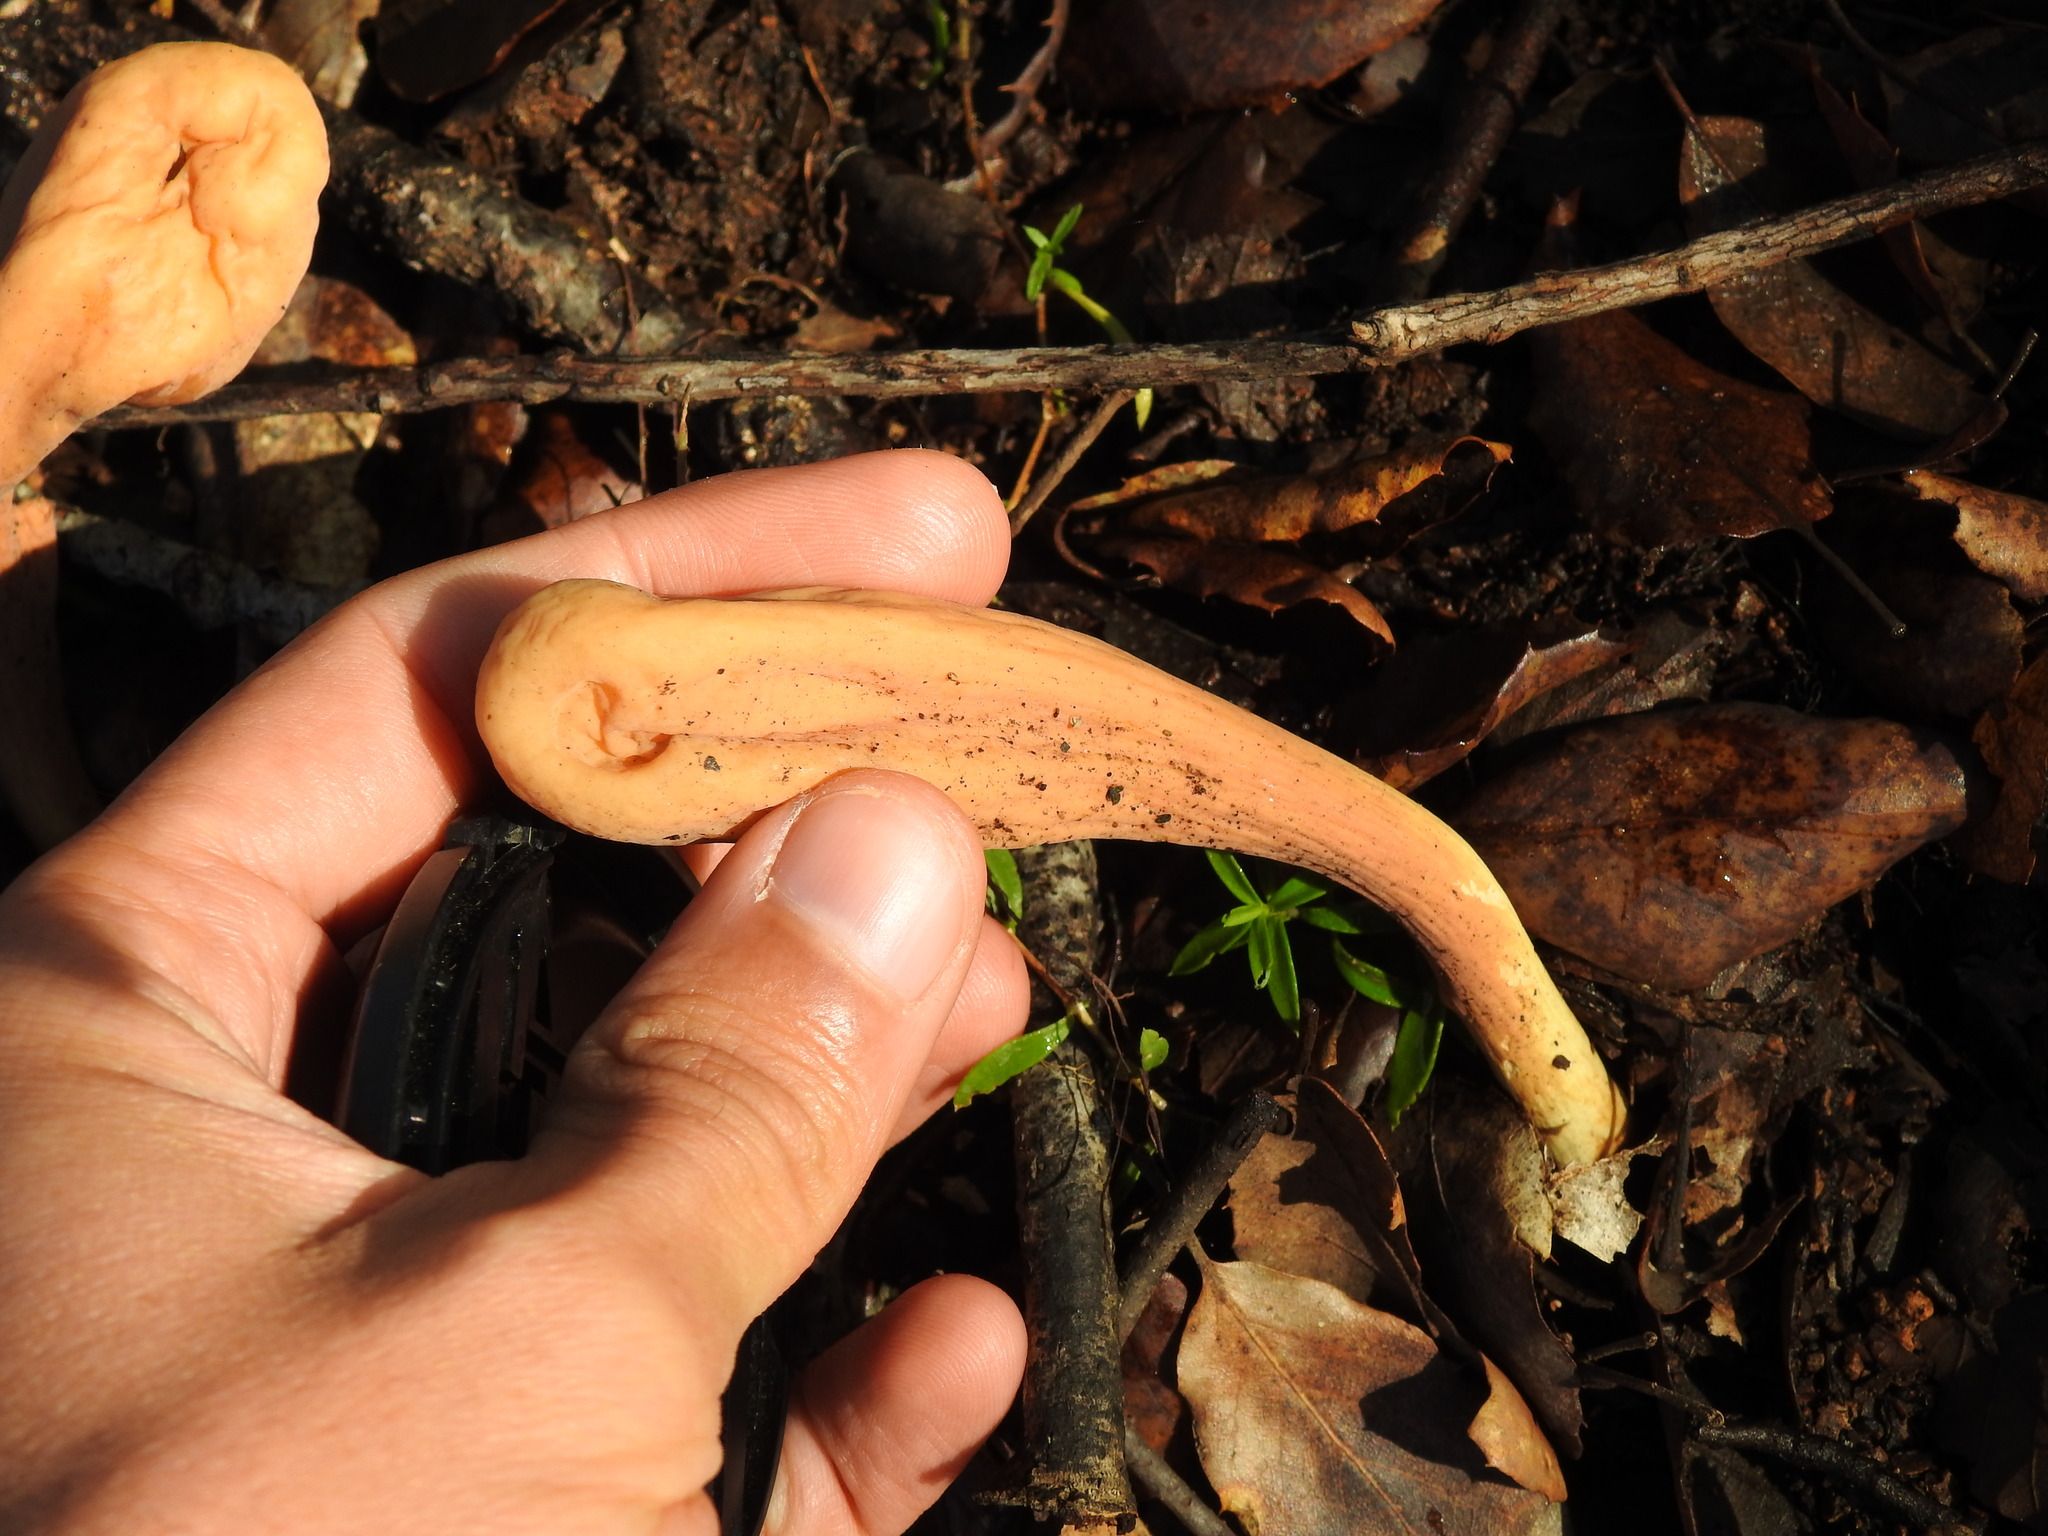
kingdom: Fungi
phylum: Basidiomycota
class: Agaricomycetes
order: Gomphales
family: Clavariadelphaceae
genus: Clavariadelphus
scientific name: Clavariadelphus pistillaris
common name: Giant club
